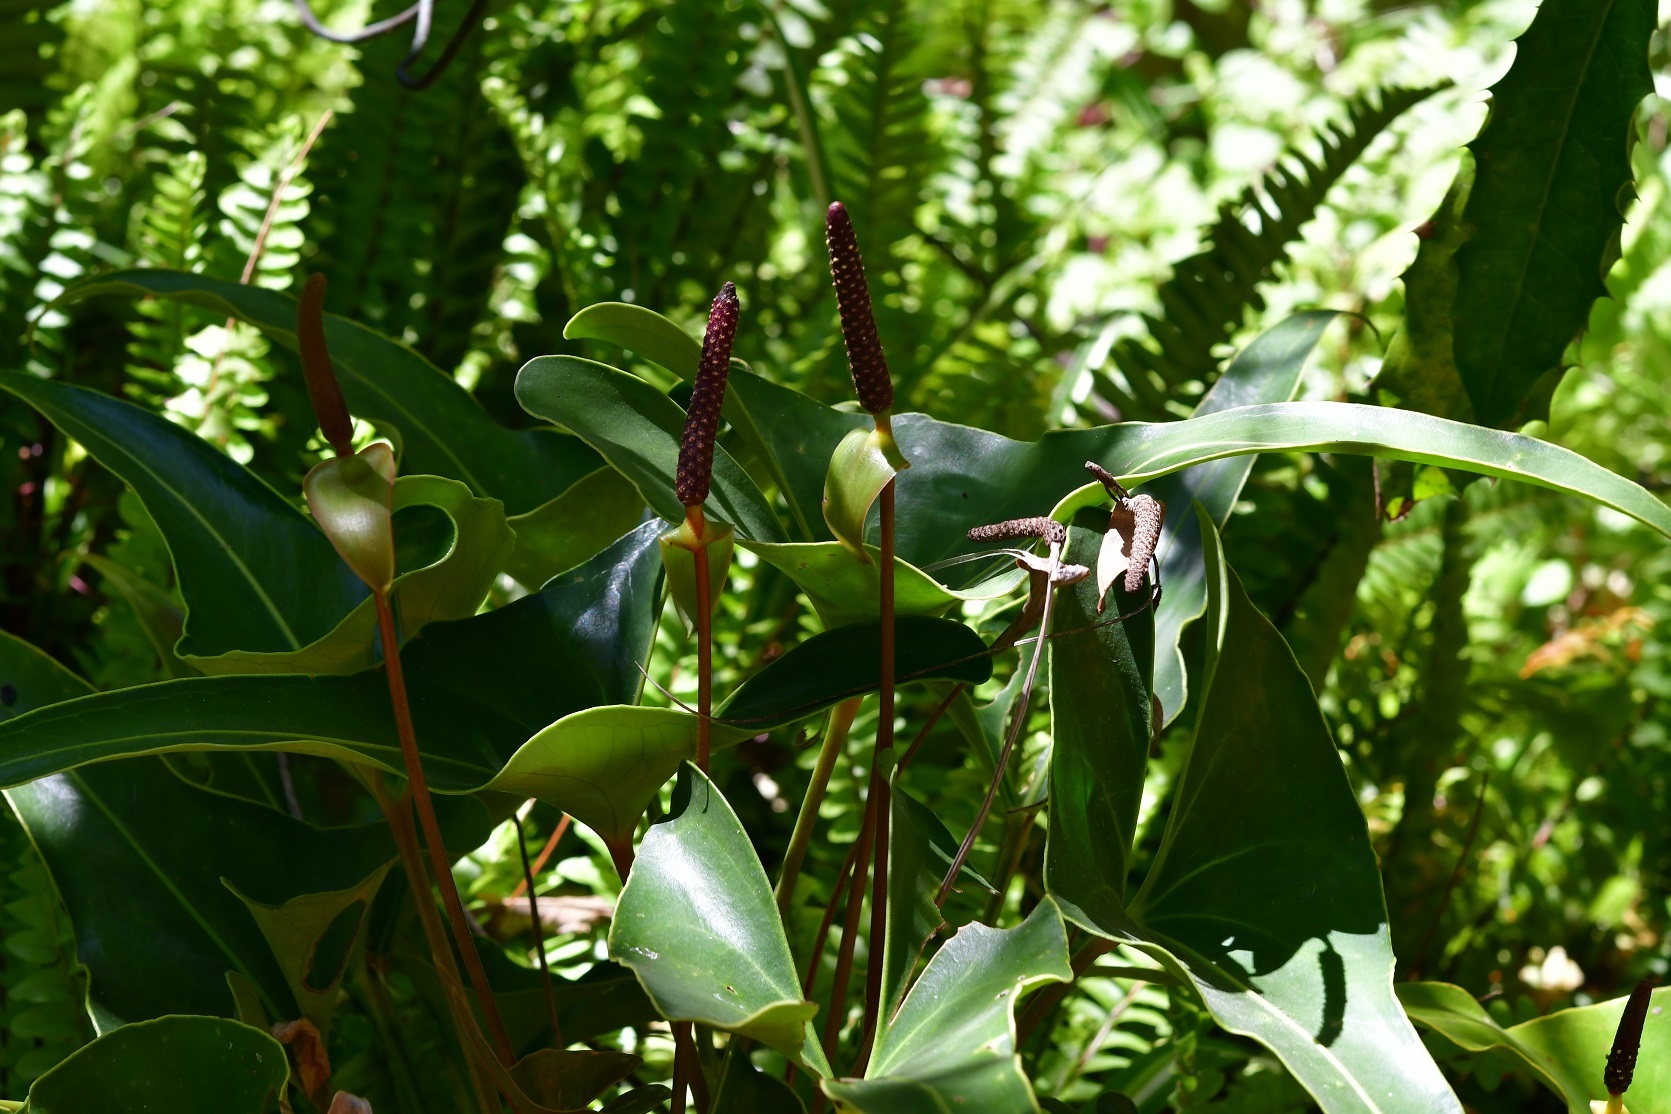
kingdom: Plantae
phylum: Tracheophyta
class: Liliopsida
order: Alismatales
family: Araceae
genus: Anthurium
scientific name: Anthurium cerrobaulense
